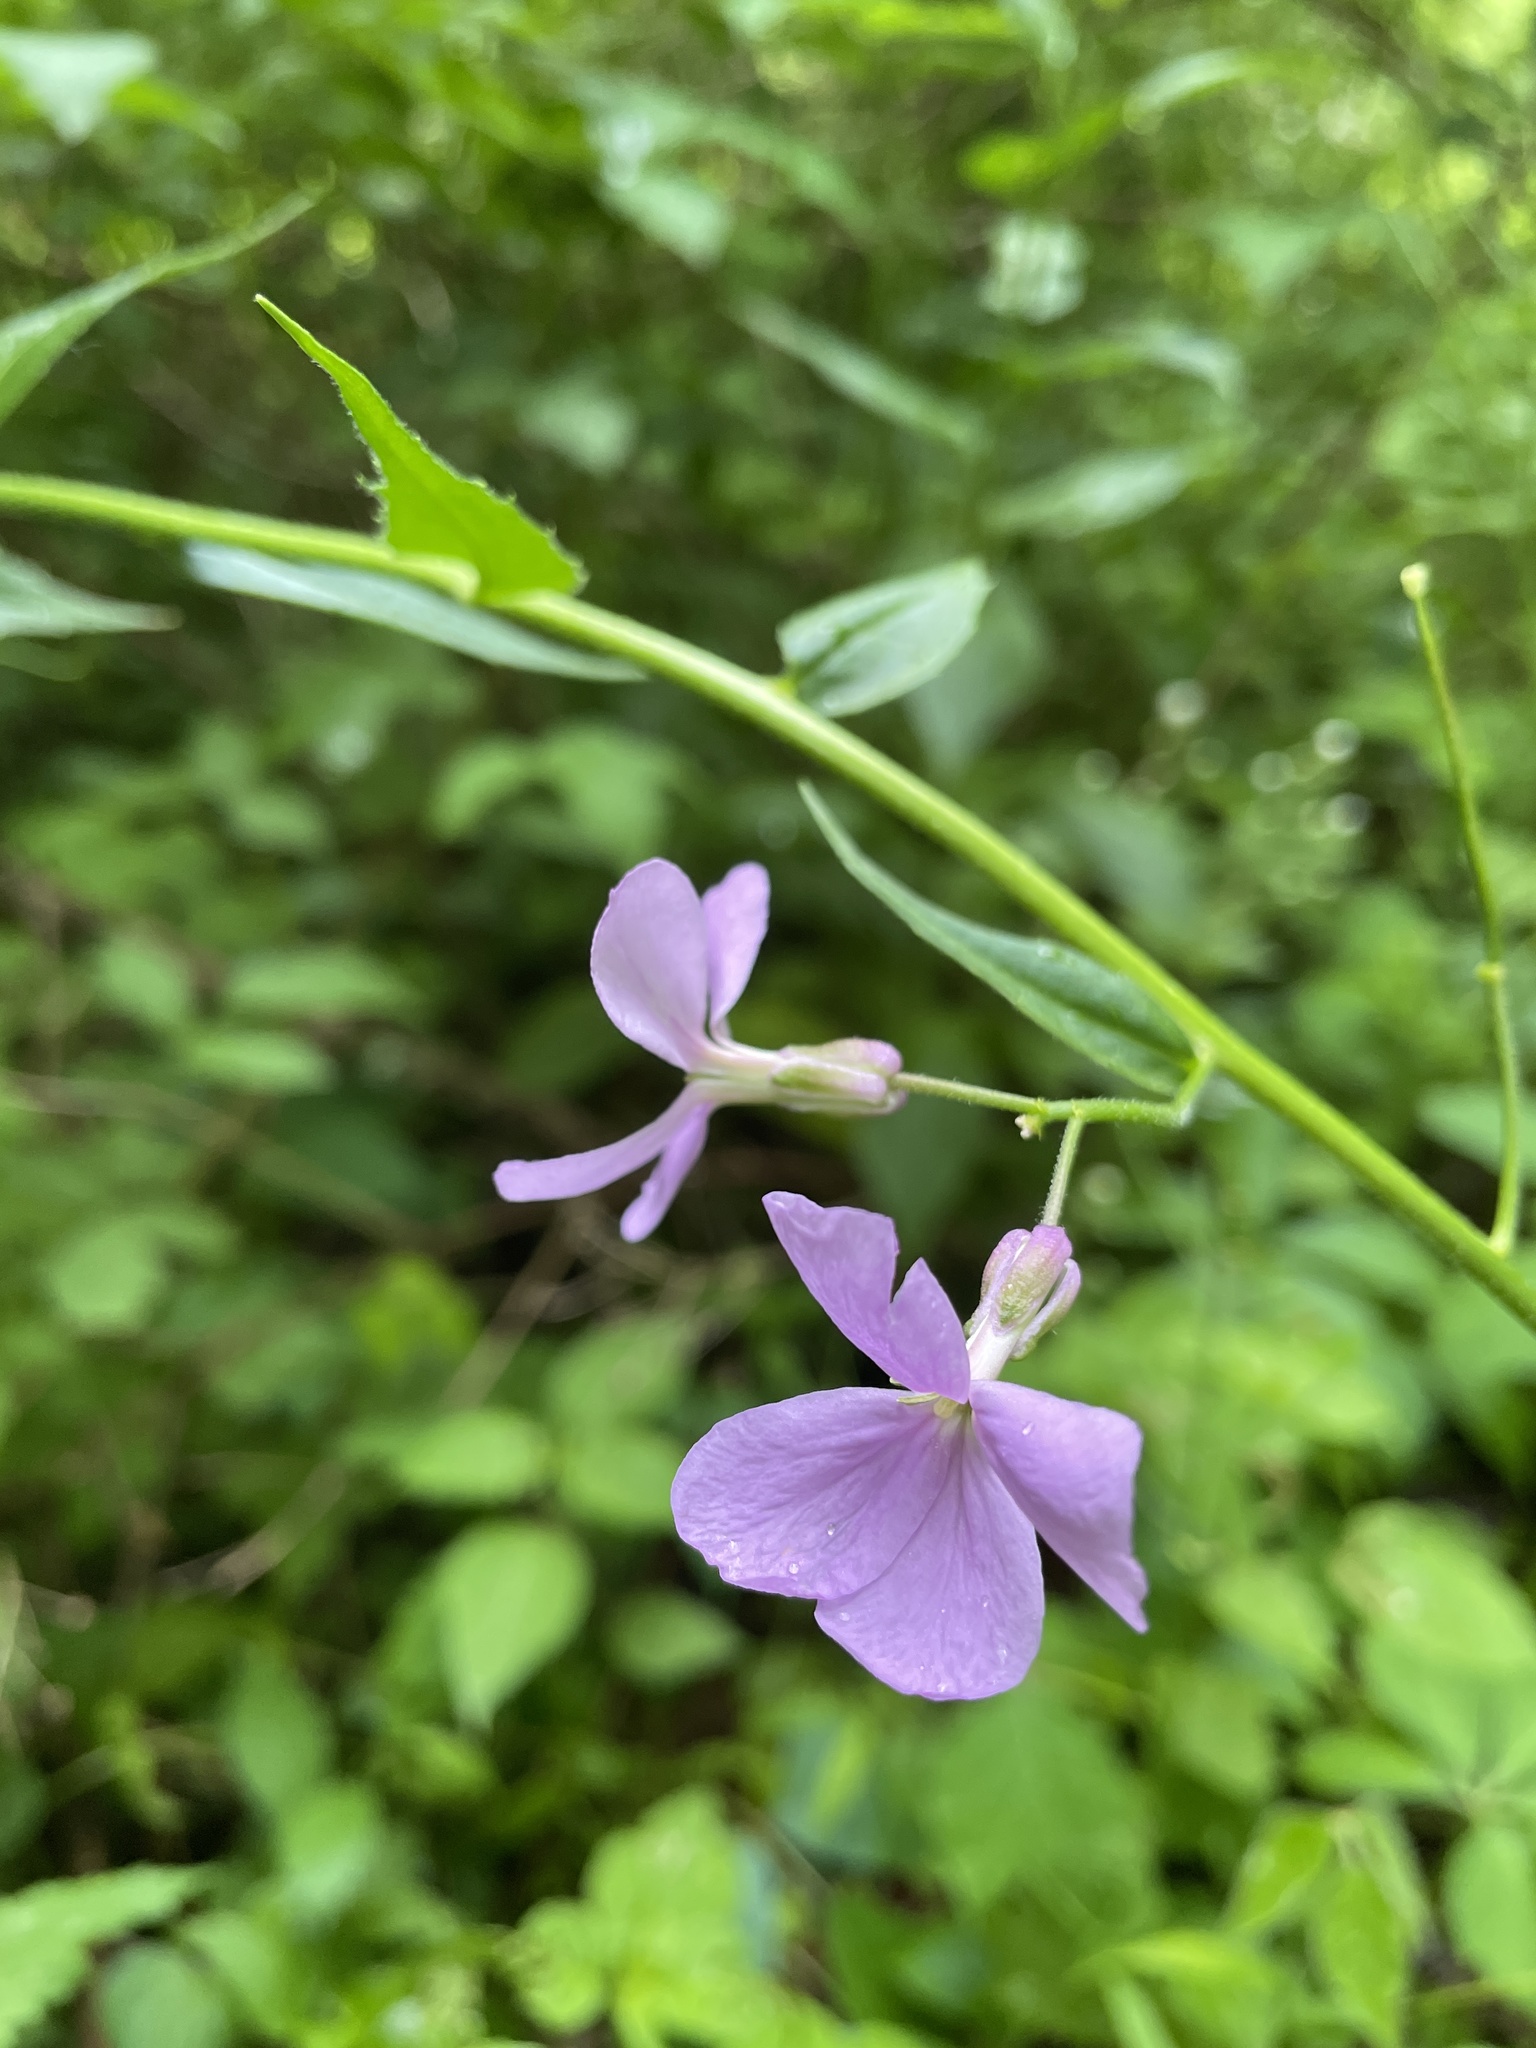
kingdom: Plantae
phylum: Tracheophyta
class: Magnoliopsida
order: Brassicales
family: Brassicaceae
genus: Hesperis
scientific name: Hesperis matronalis
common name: Dame's-violet
